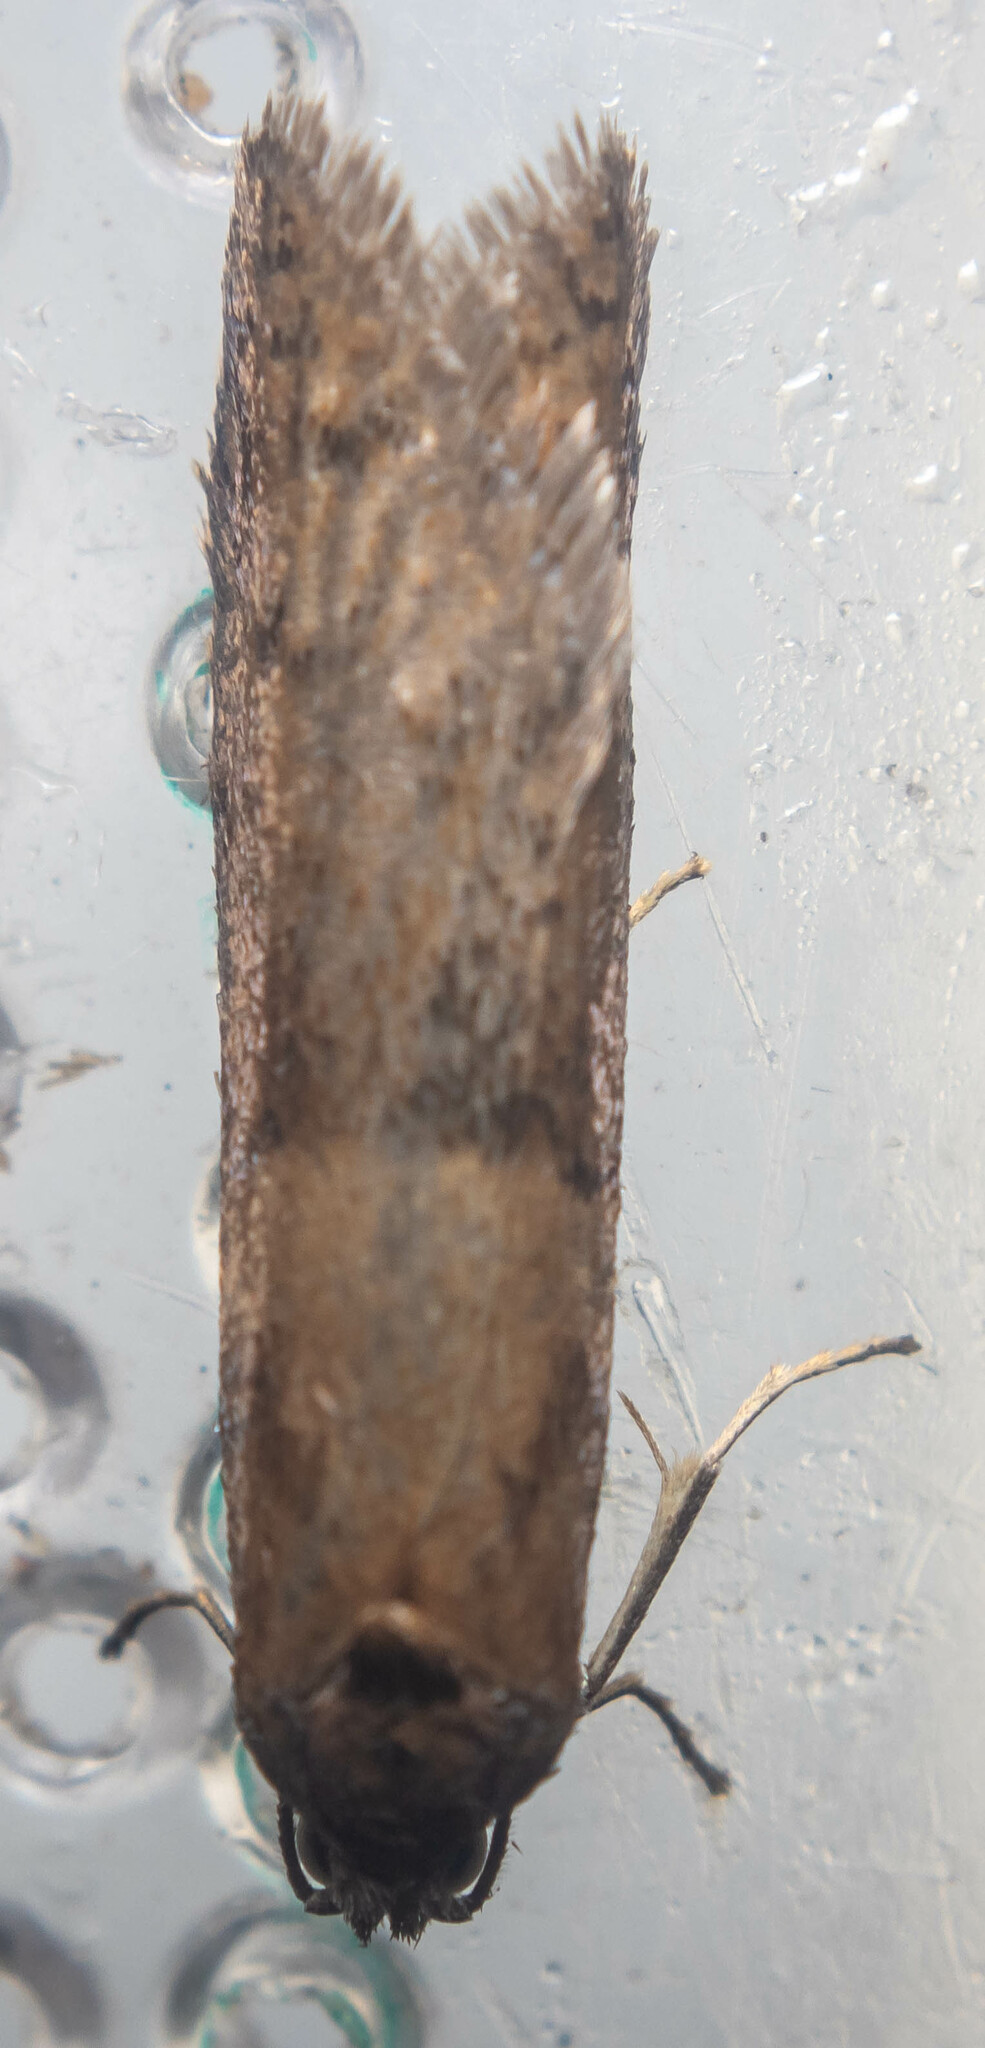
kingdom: Animalia
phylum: Arthropoda
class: Insecta
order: Lepidoptera
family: Tortricidae
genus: Tortricodes
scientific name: Tortricodes alternella
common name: Winter shade
